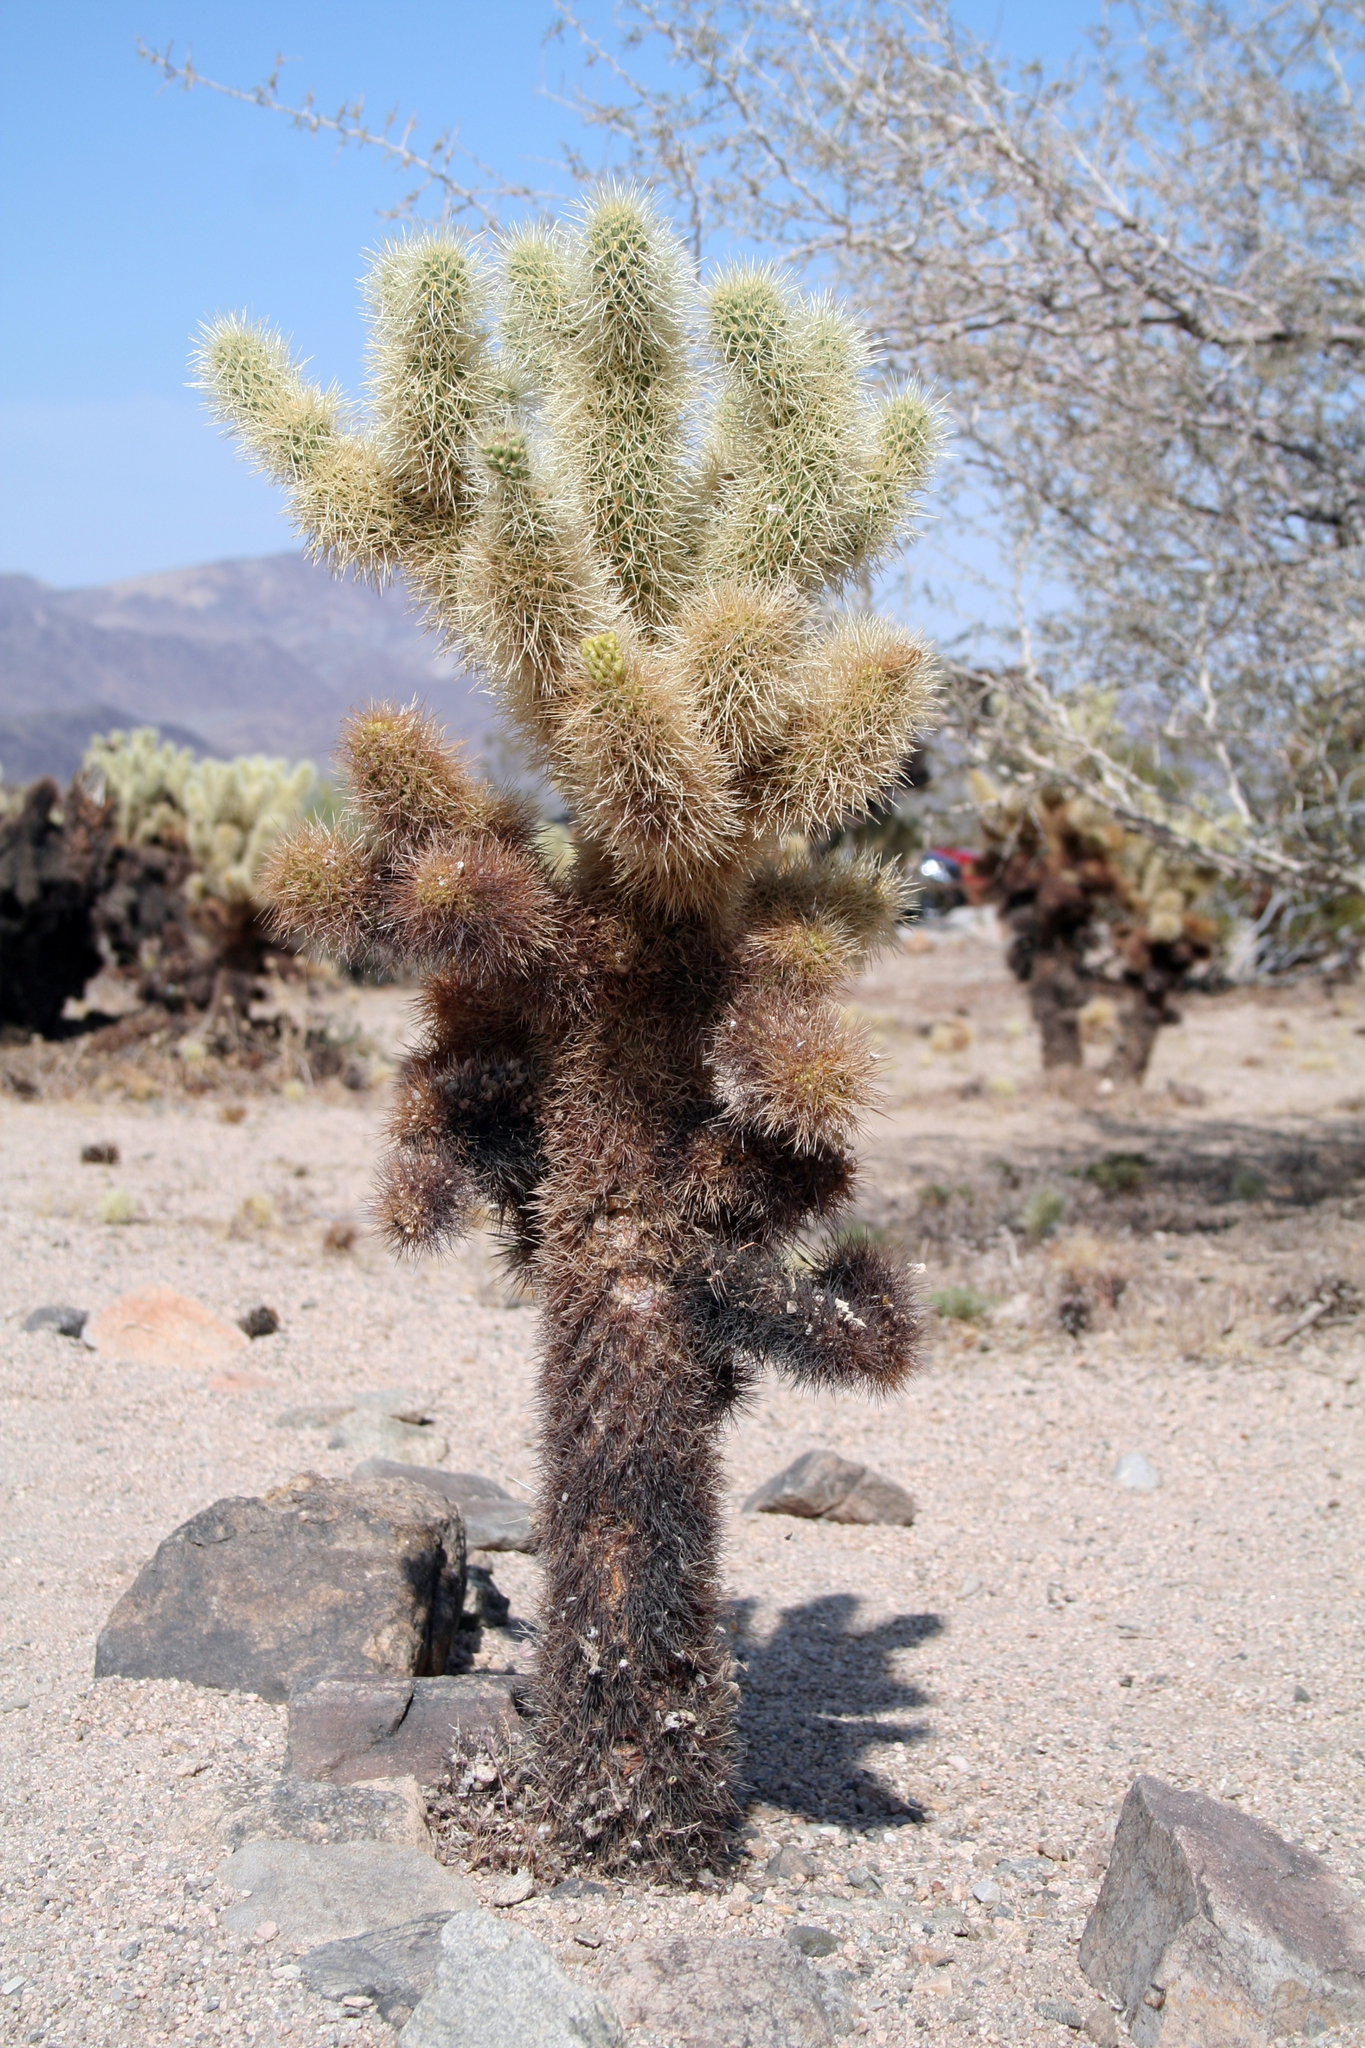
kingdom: Plantae
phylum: Tracheophyta
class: Magnoliopsida
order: Caryophyllales
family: Cactaceae
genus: Cylindropuntia
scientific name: Cylindropuntia fosbergii
